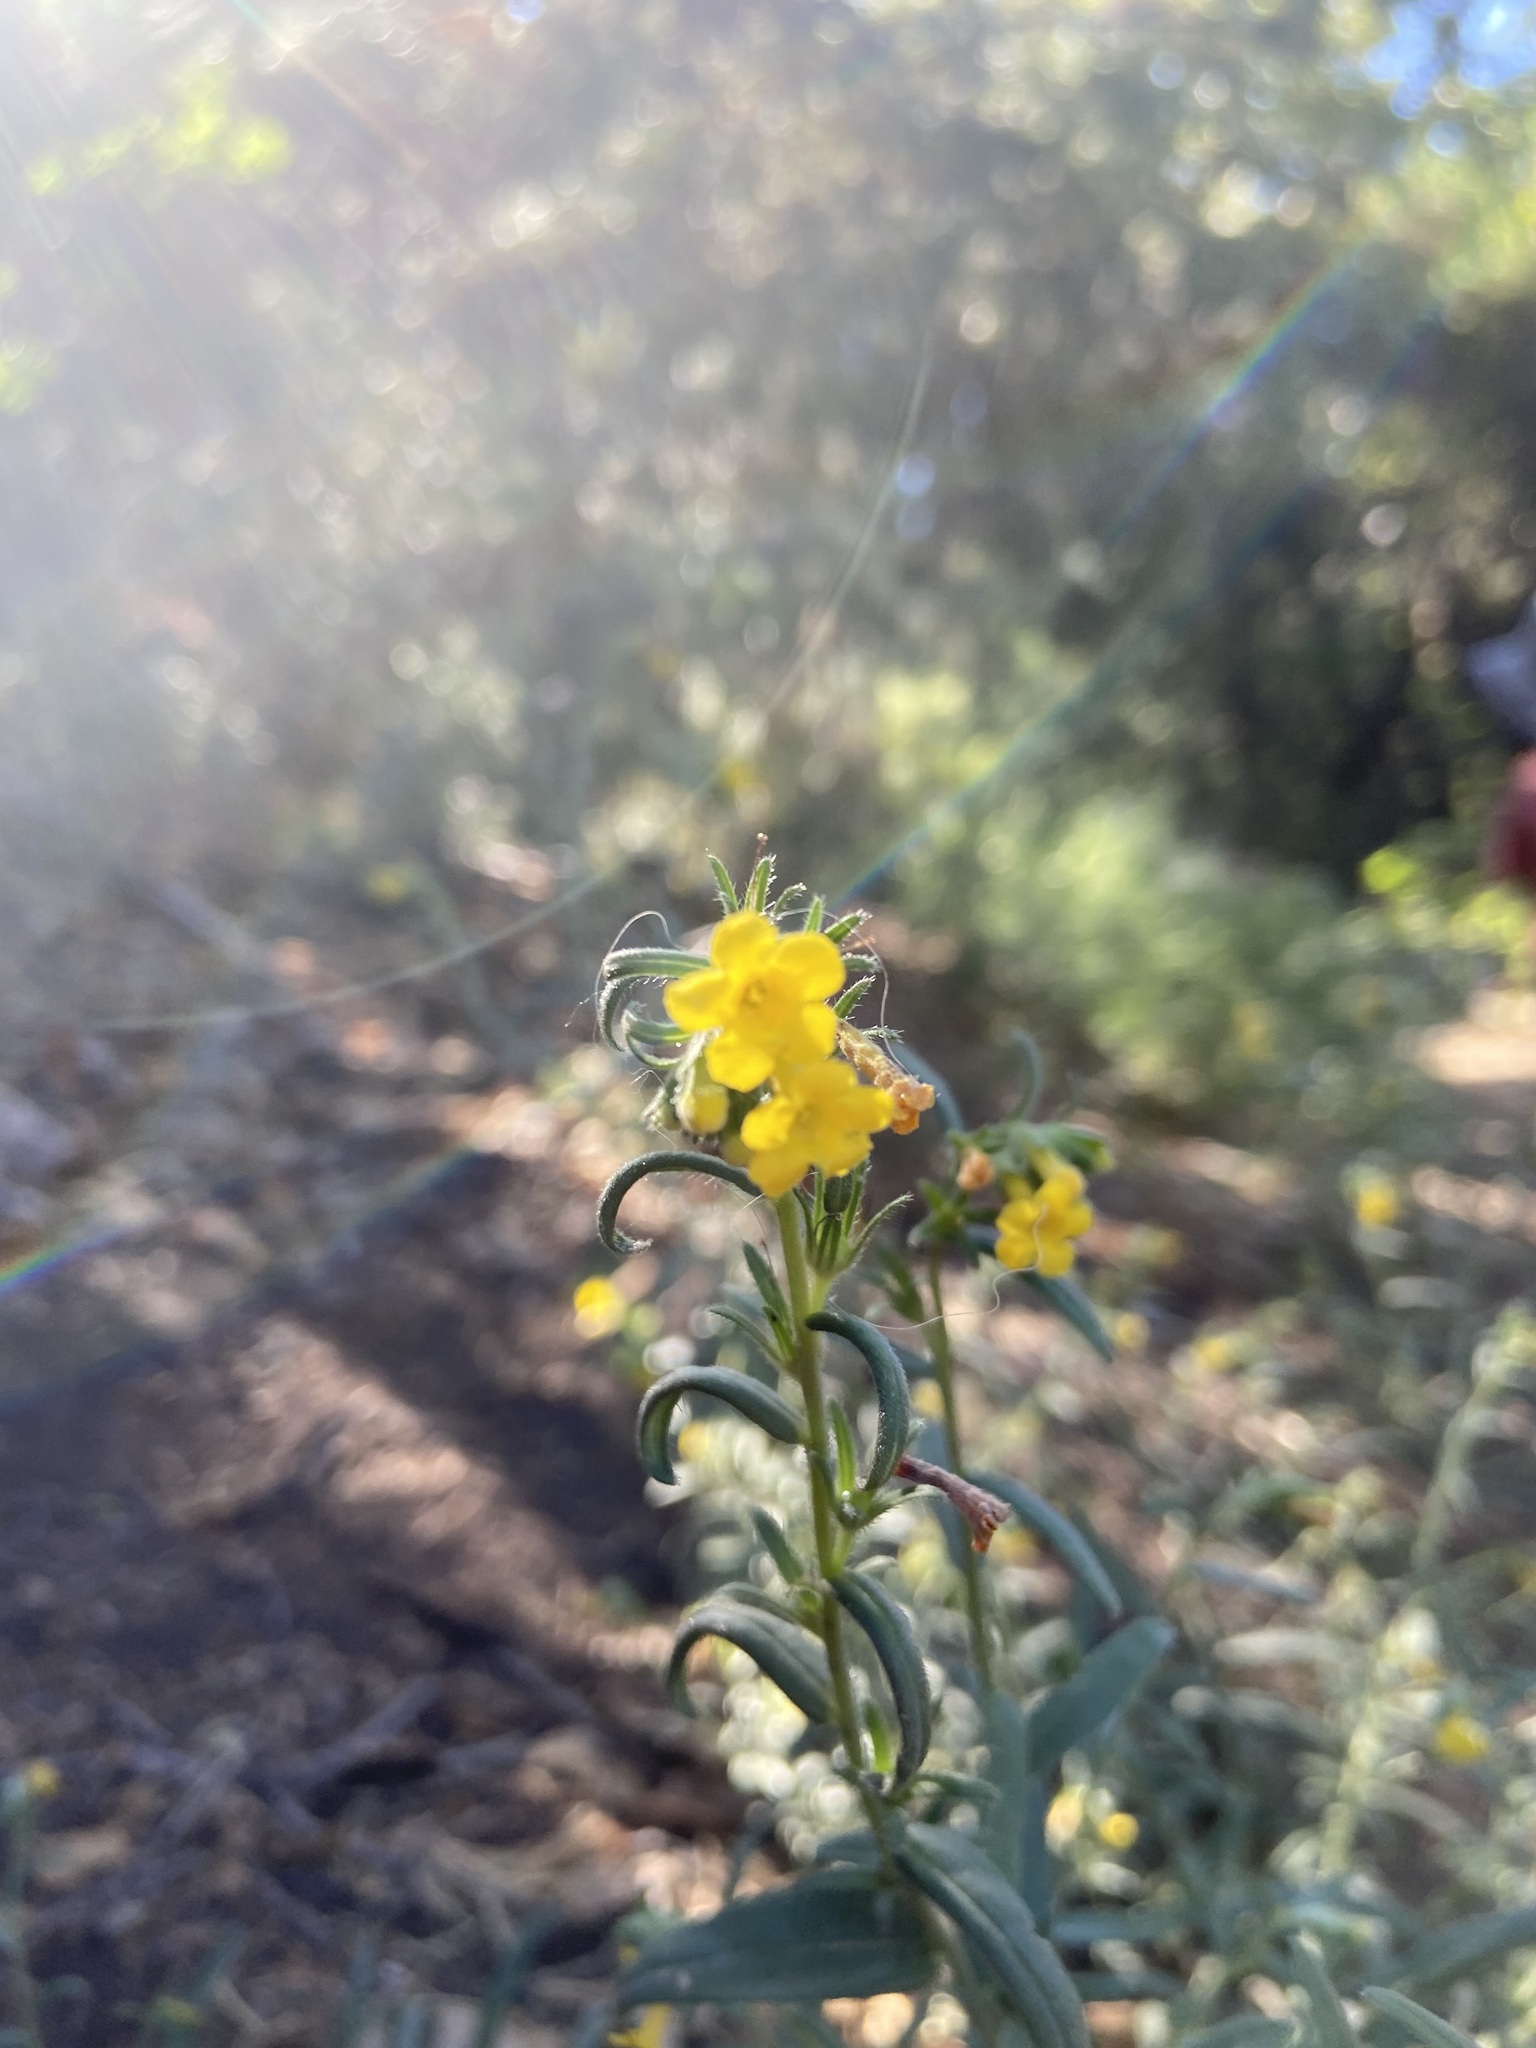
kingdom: Plantae
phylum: Tracheophyta
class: Magnoliopsida
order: Boraginales
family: Boraginaceae
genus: Lithospermum
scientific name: Lithospermum multiflorum
